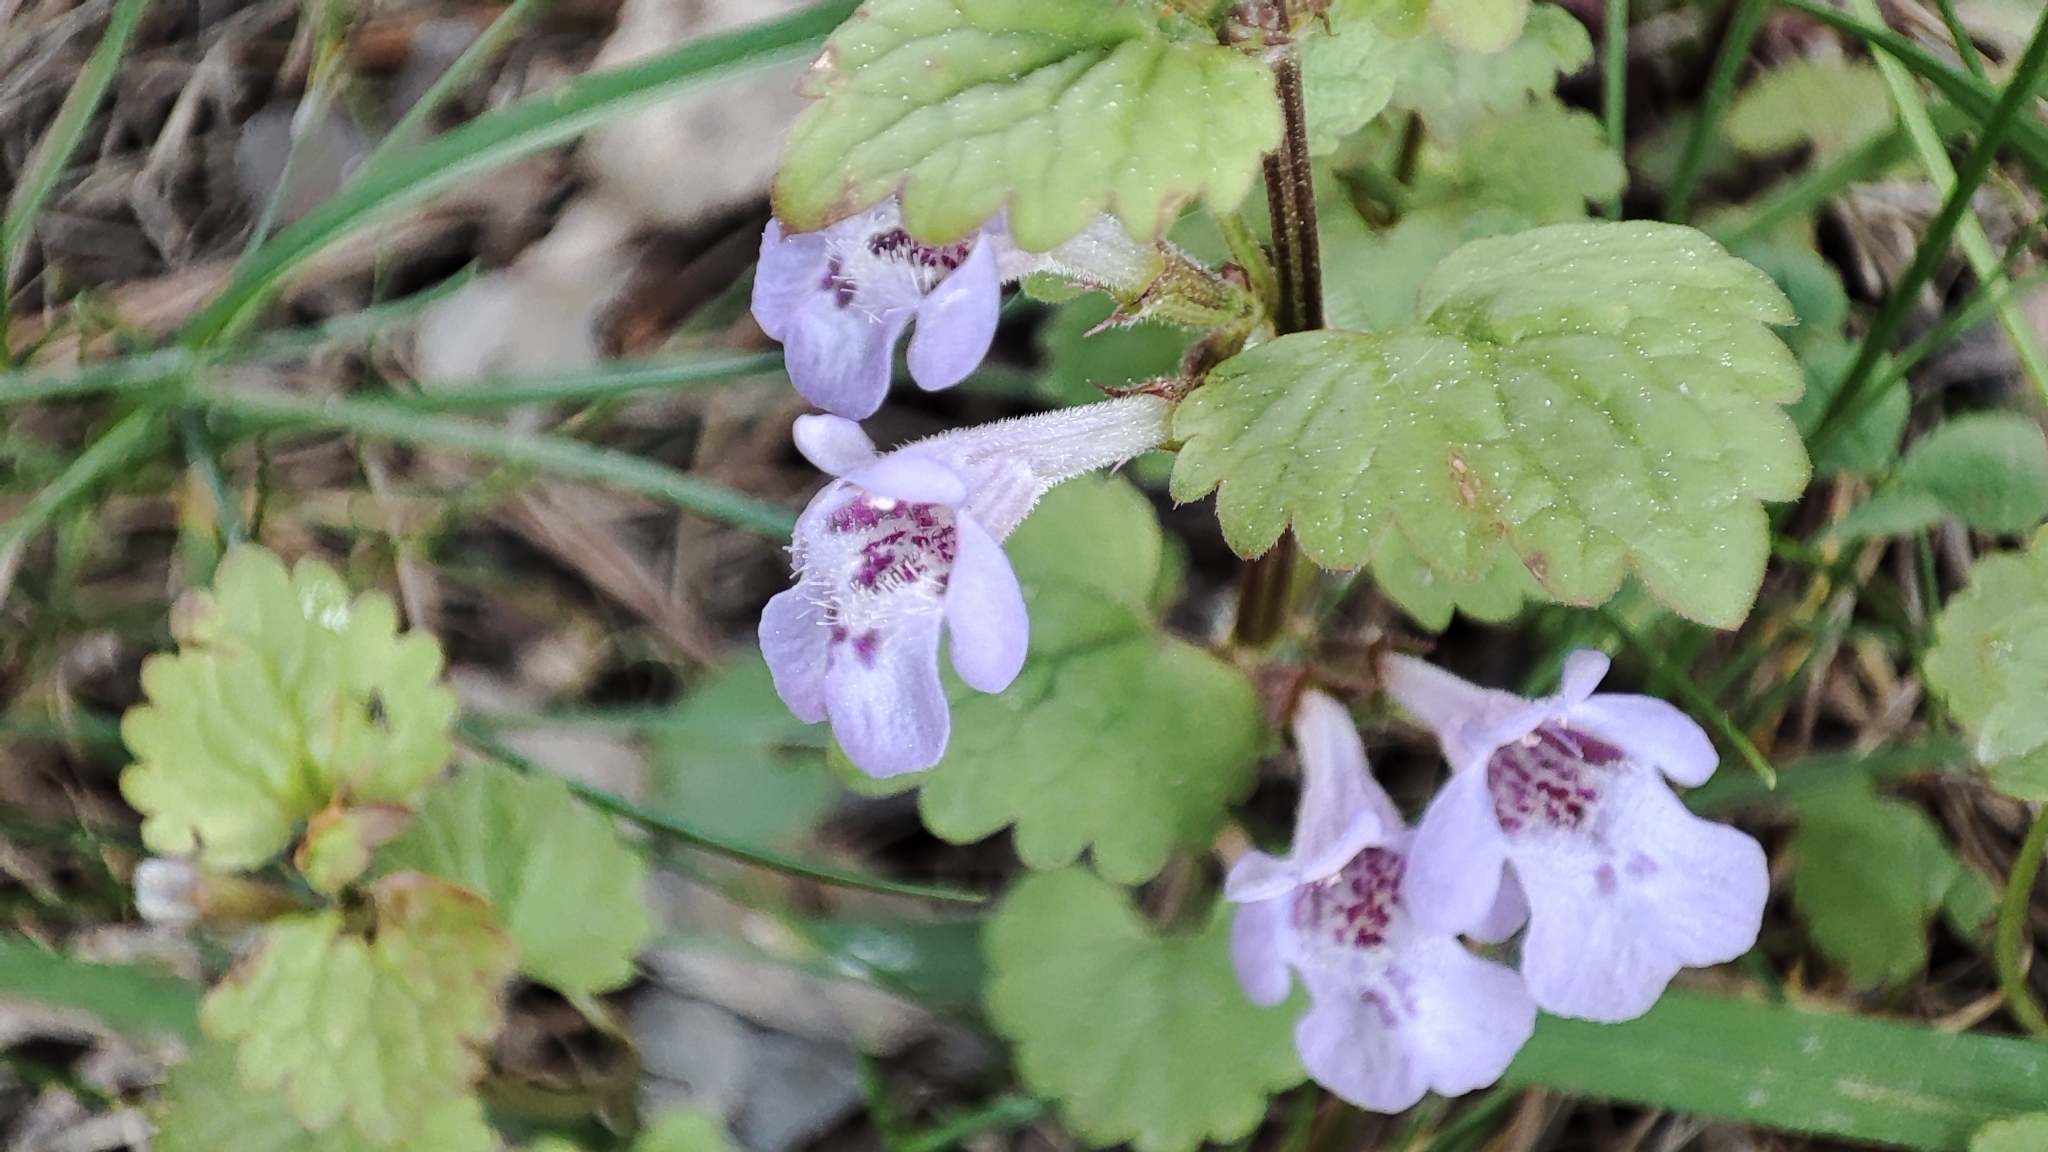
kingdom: Plantae
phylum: Tracheophyta
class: Magnoliopsida
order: Lamiales
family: Lamiaceae
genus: Glechoma
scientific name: Glechoma hederacea
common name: Ground ivy
